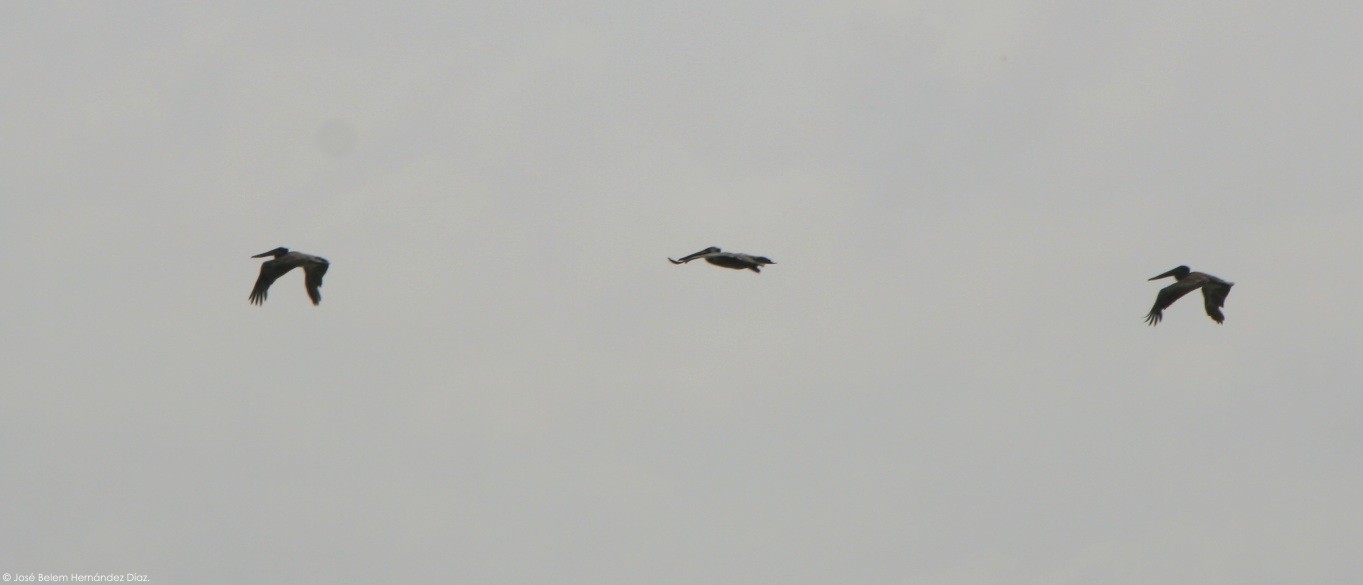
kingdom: Animalia
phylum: Chordata
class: Aves
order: Pelecaniformes
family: Pelecanidae
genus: Pelecanus
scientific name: Pelecanus occidentalis
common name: Brown pelican
